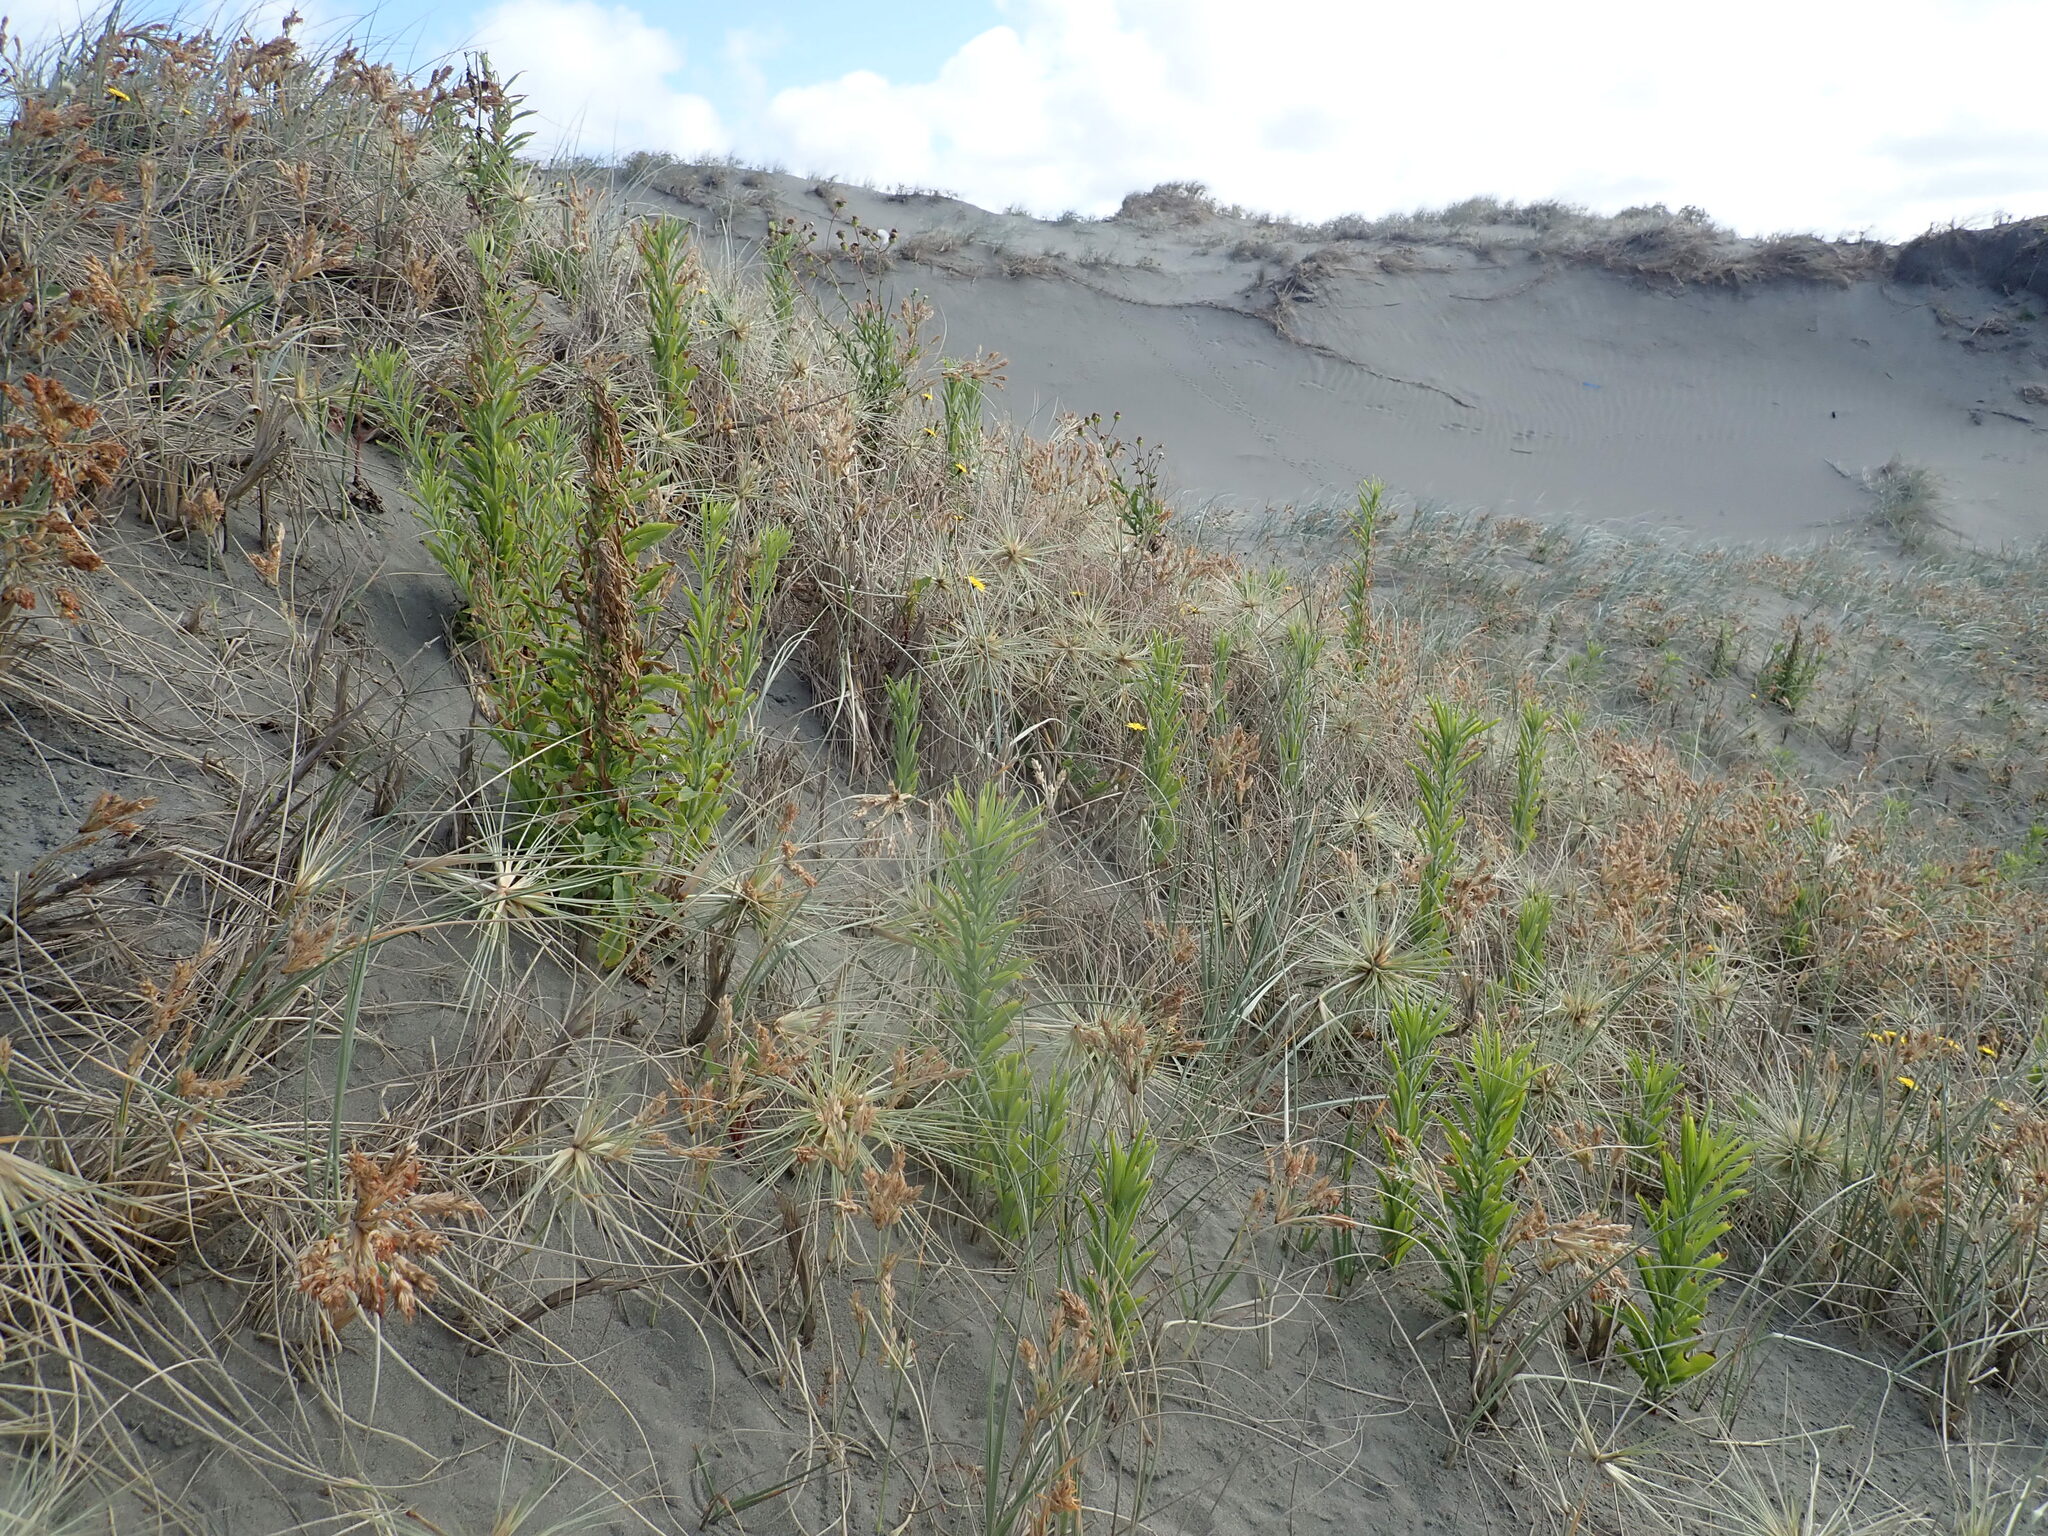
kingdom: Plantae
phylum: Tracheophyta
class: Magnoliopsida
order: Asterales
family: Asteraceae
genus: Erigeron
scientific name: Erigeron sumatrensis
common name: Daisy
